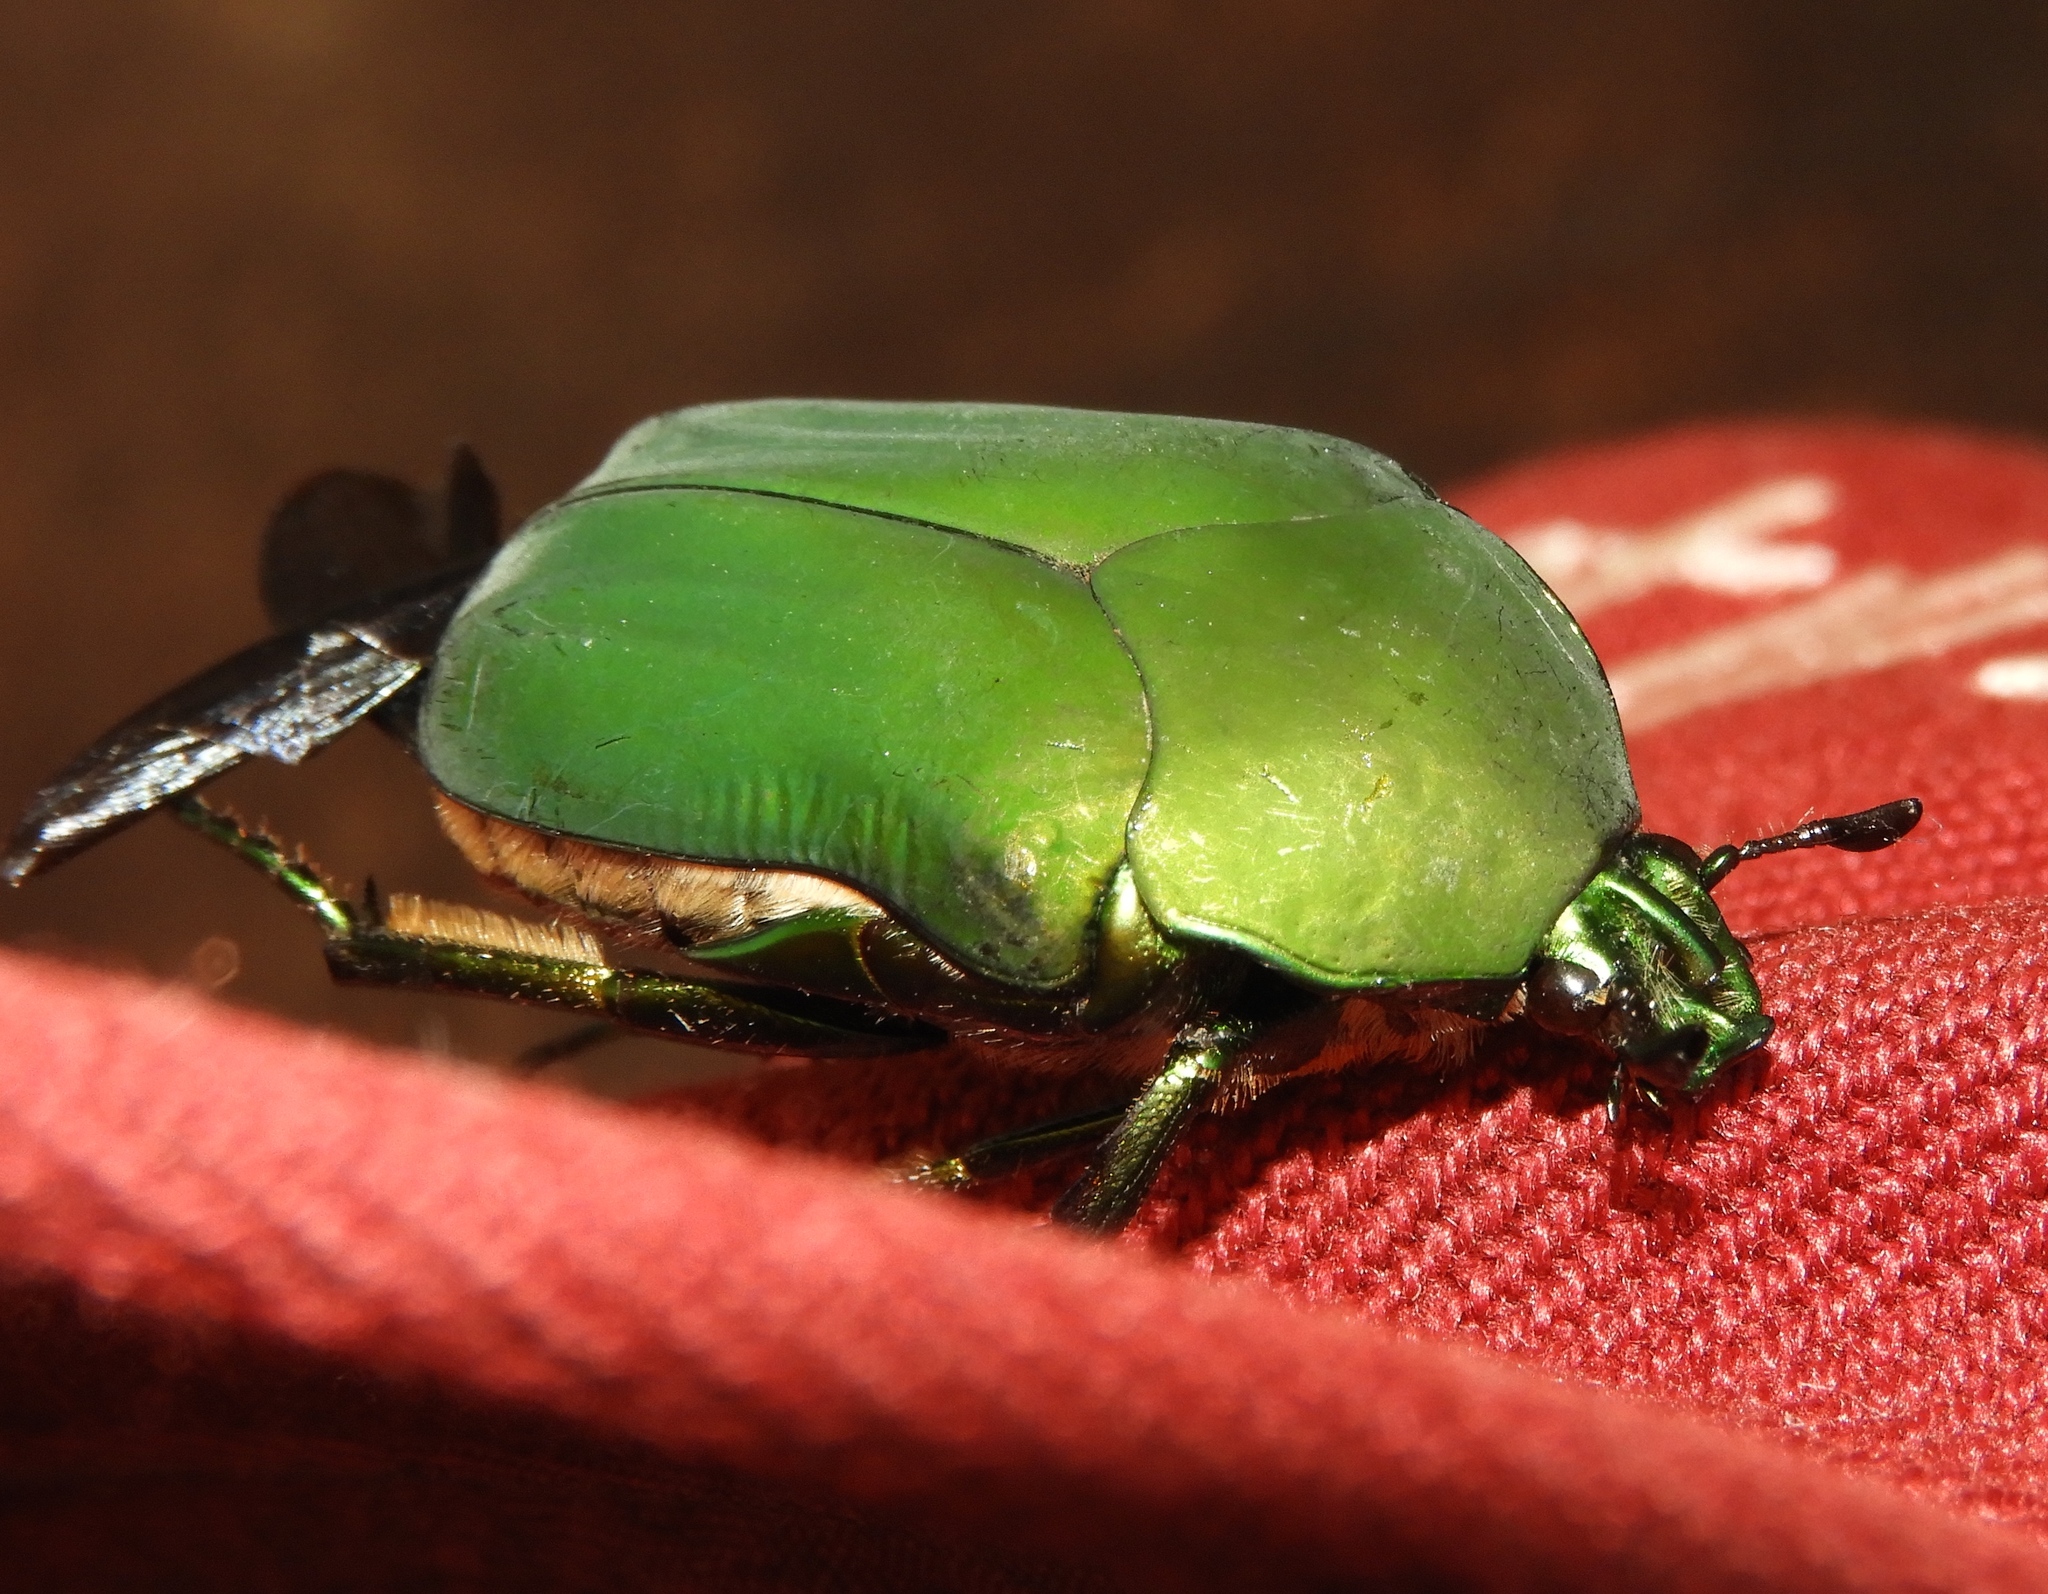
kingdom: Animalia
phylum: Arthropoda
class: Insecta
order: Coleoptera
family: Scarabaeidae
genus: Cotinis
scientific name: Cotinis mutabilis
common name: Figeater beetle
